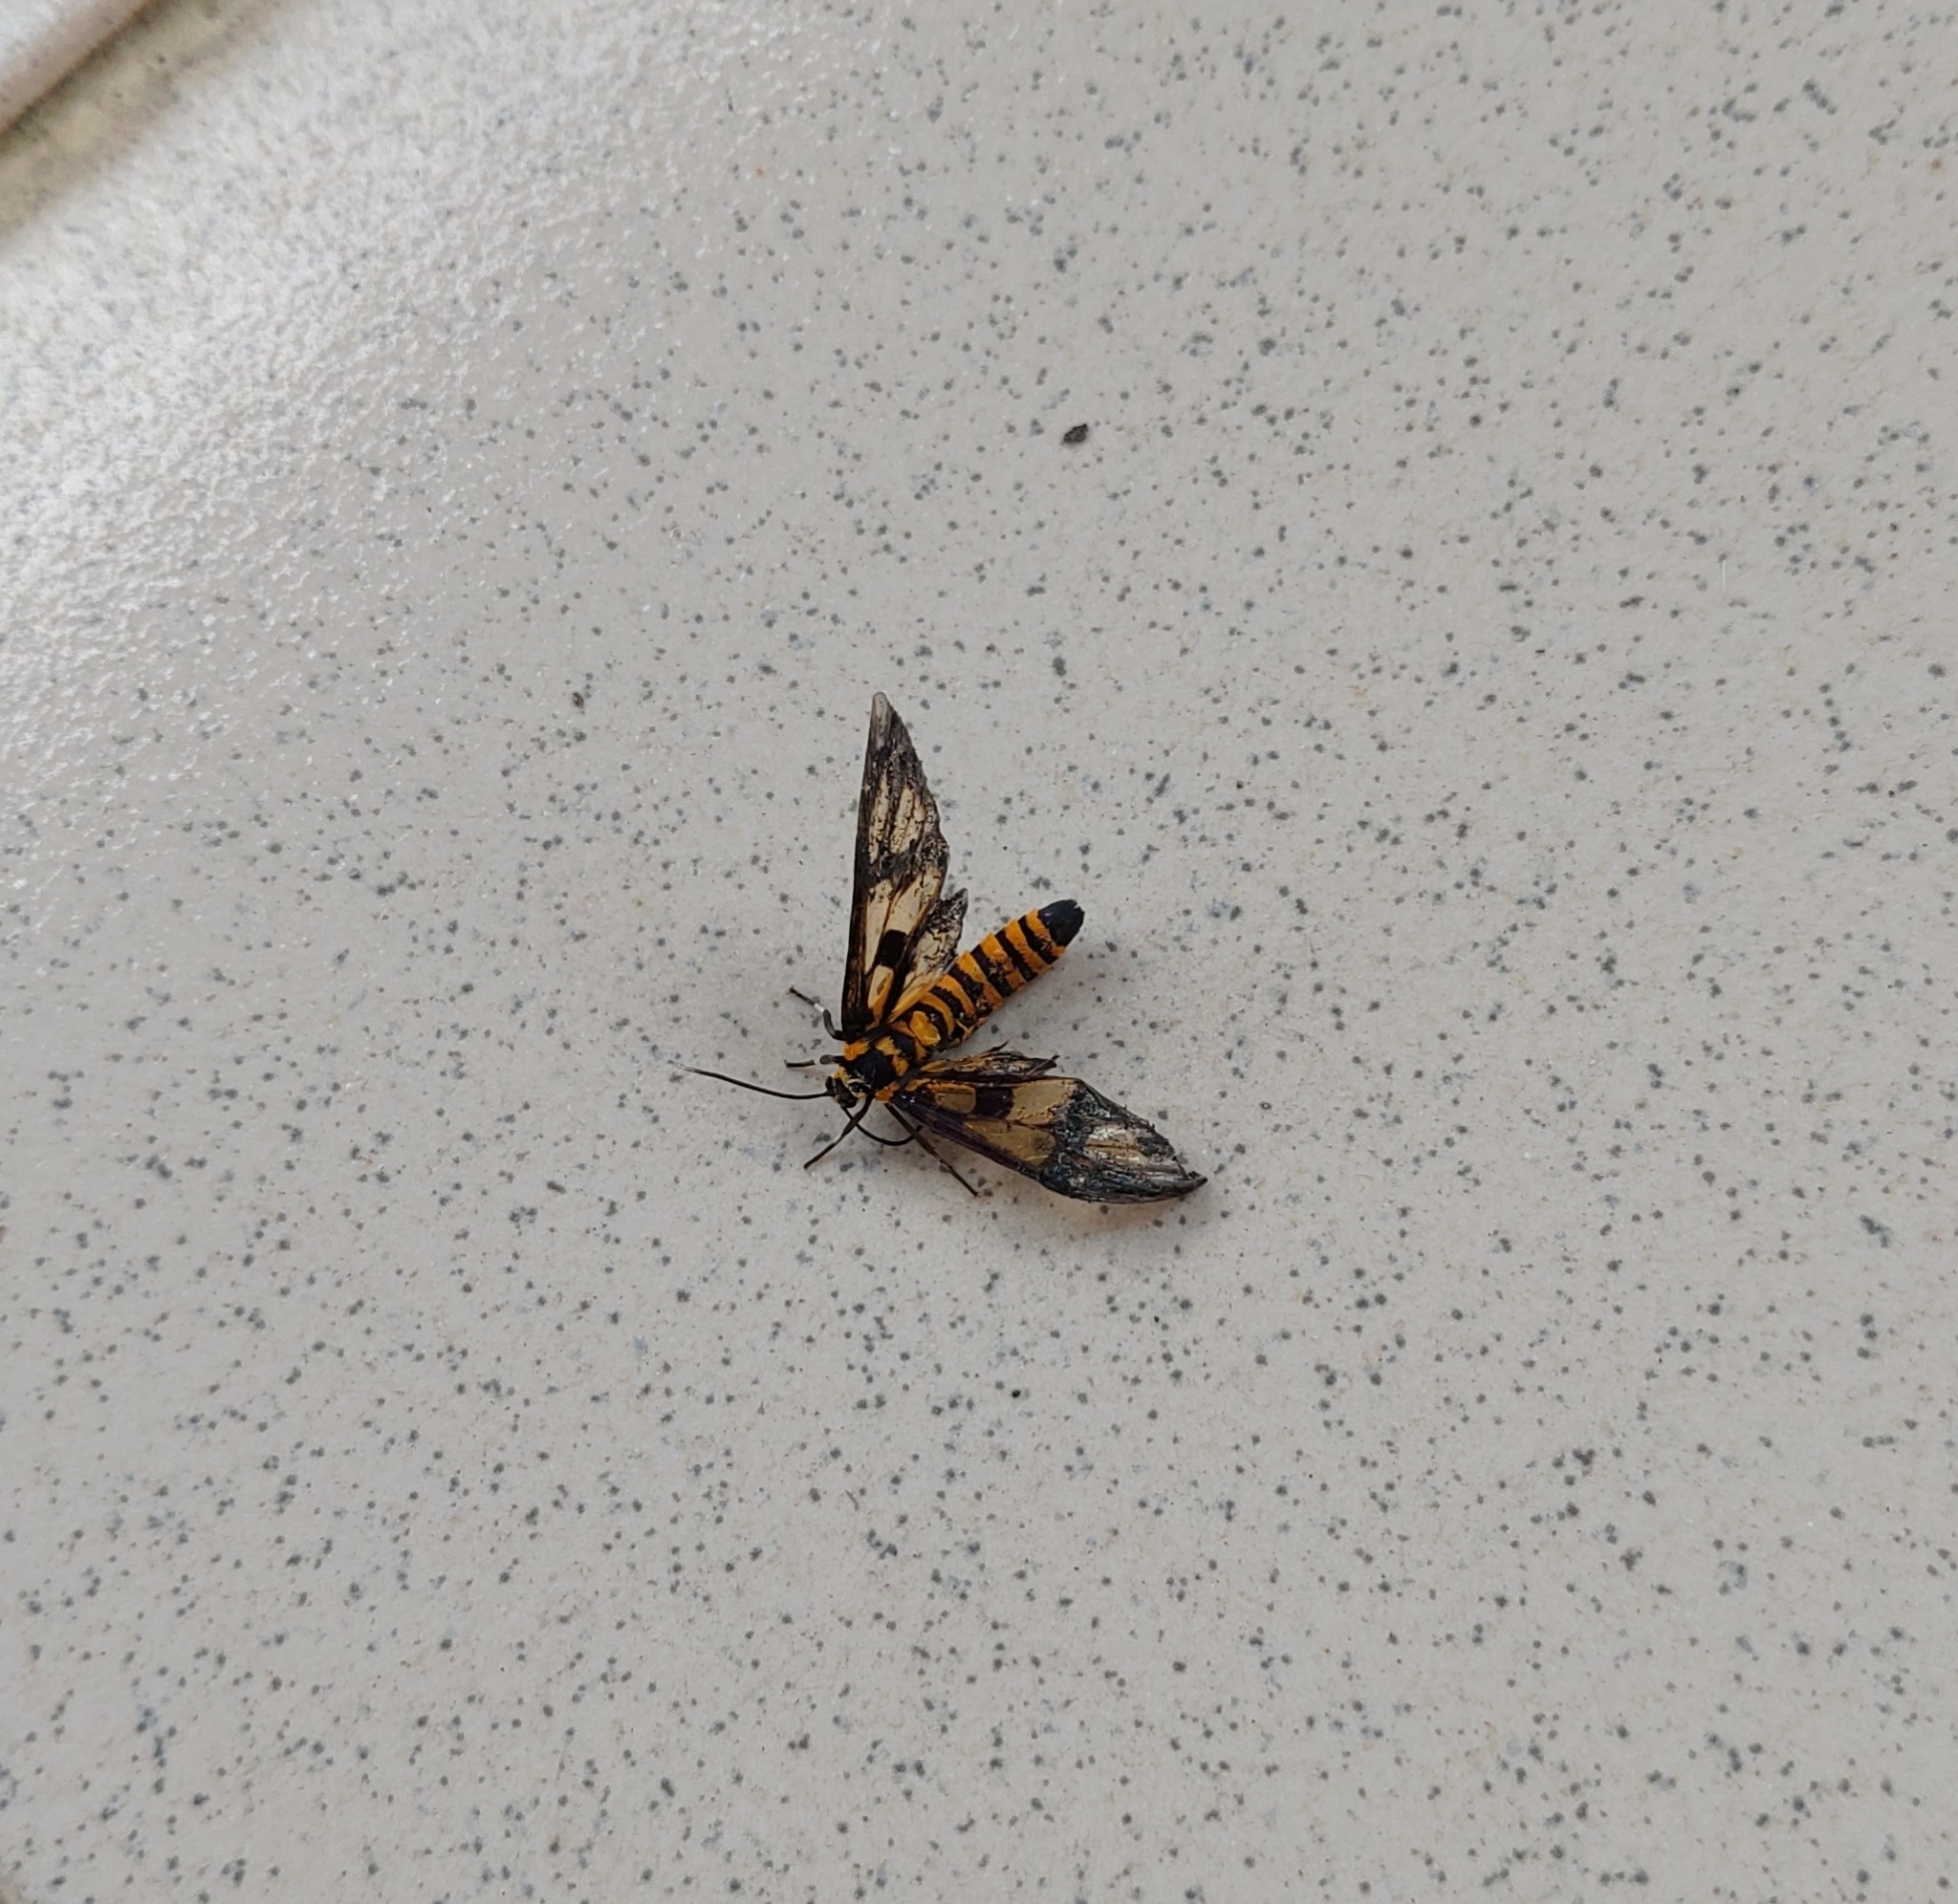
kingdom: Animalia
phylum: Arthropoda
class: Insecta
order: Lepidoptera
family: Erebidae
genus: Amata
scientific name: Amata persimilis
